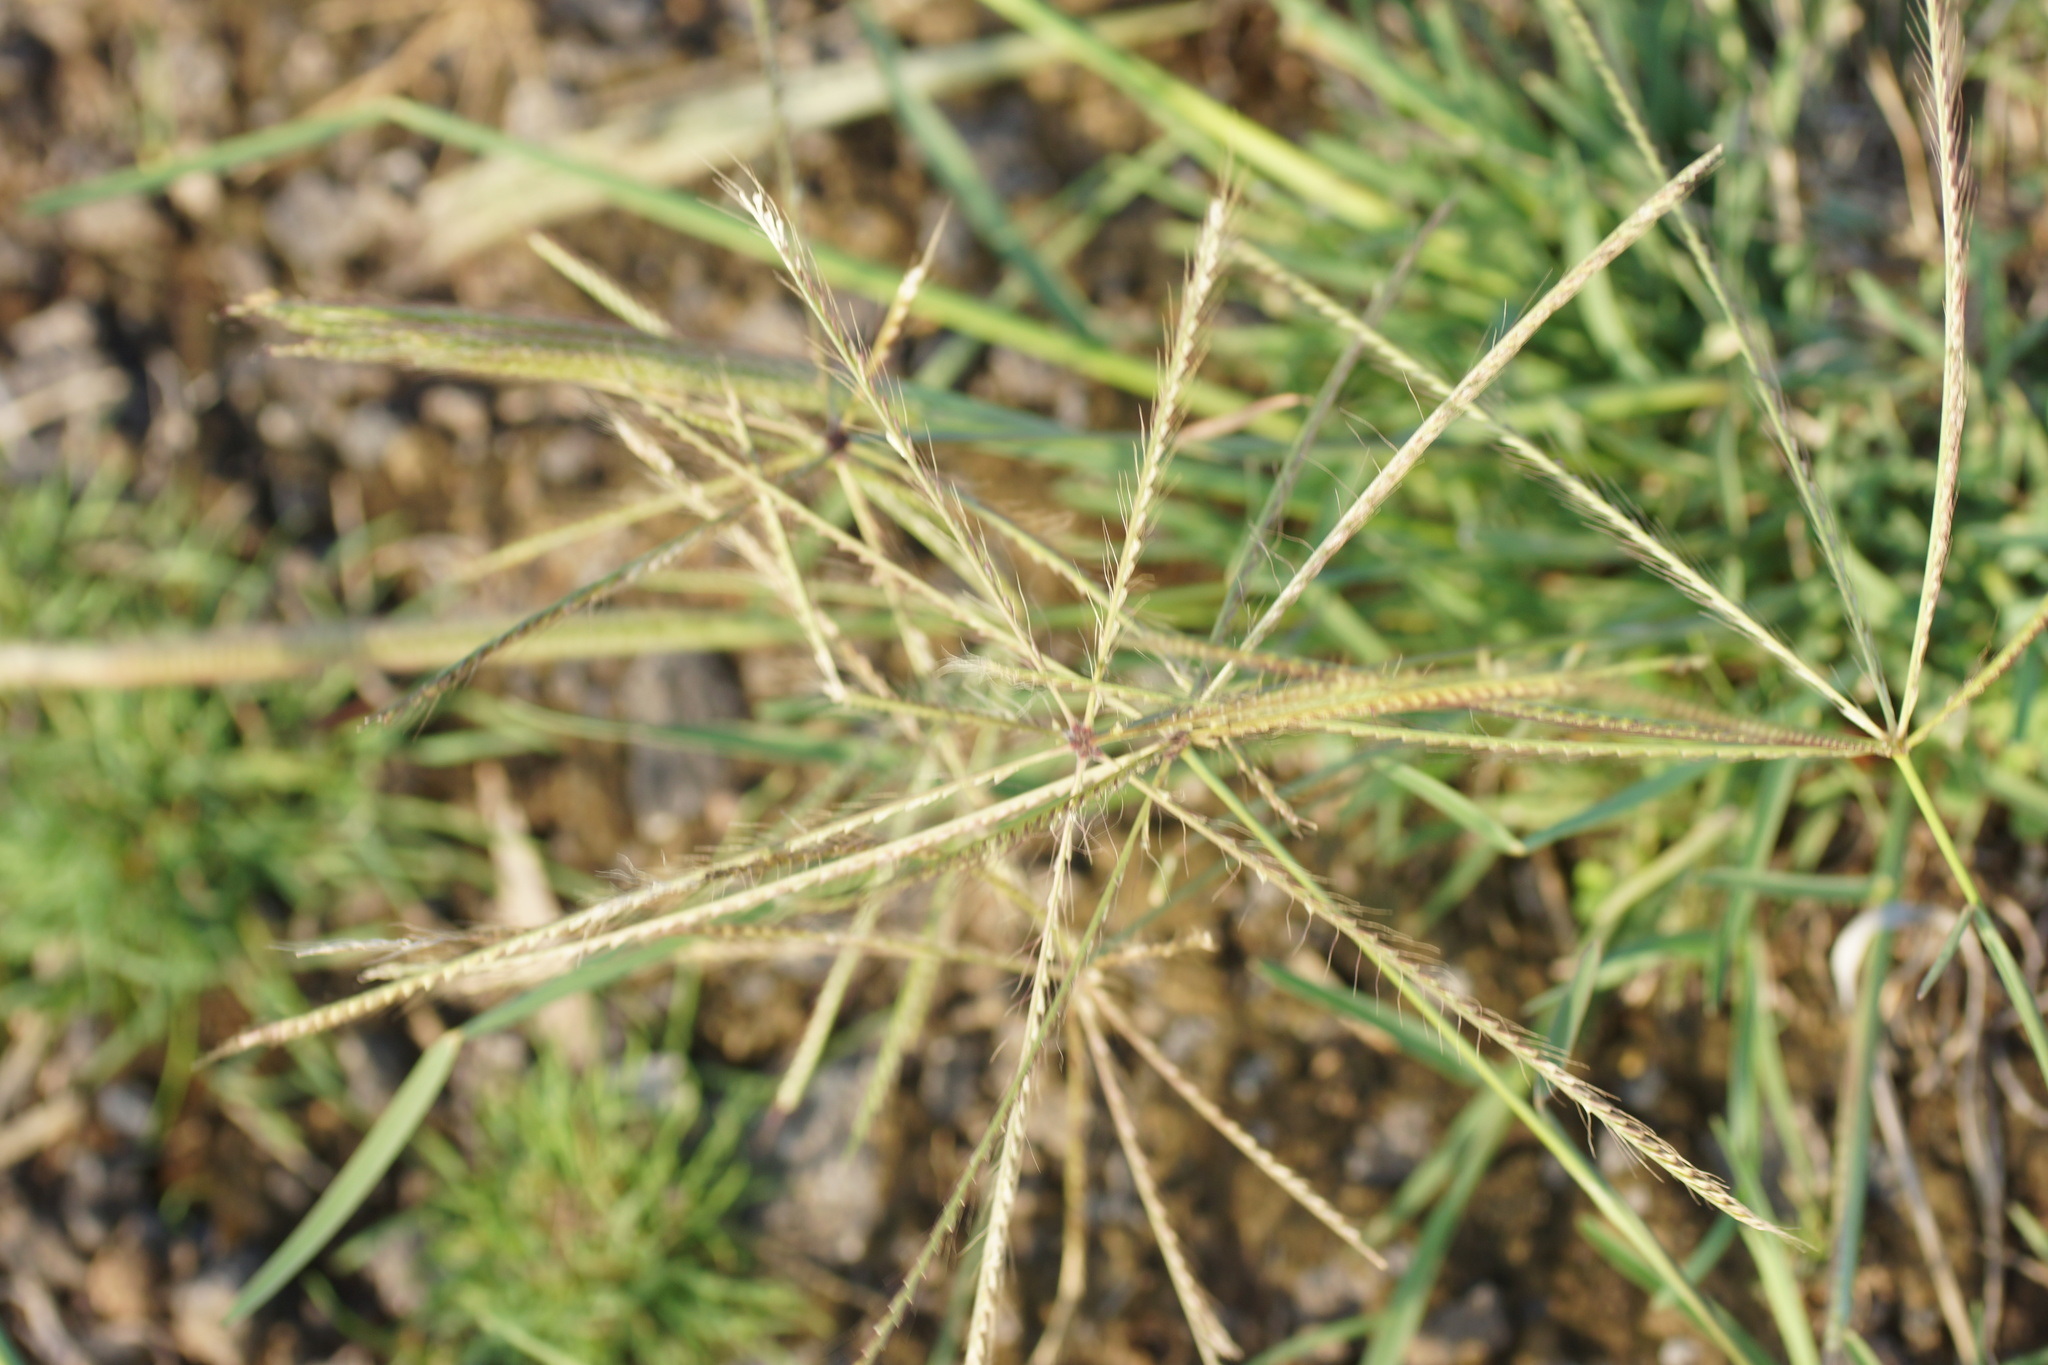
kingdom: Plantae
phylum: Tracheophyta
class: Liliopsida
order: Poales
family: Poaceae
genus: Chloris
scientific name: Chloris truncata
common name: Windmill-grass
